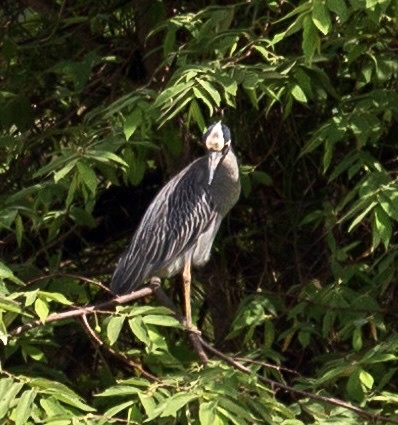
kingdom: Animalia
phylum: Chordata
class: Aves
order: Pelecaniformes
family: Ardeidae
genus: Nyctanassa
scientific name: Nyctanassa violacea
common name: Yellow-crowned night heron
